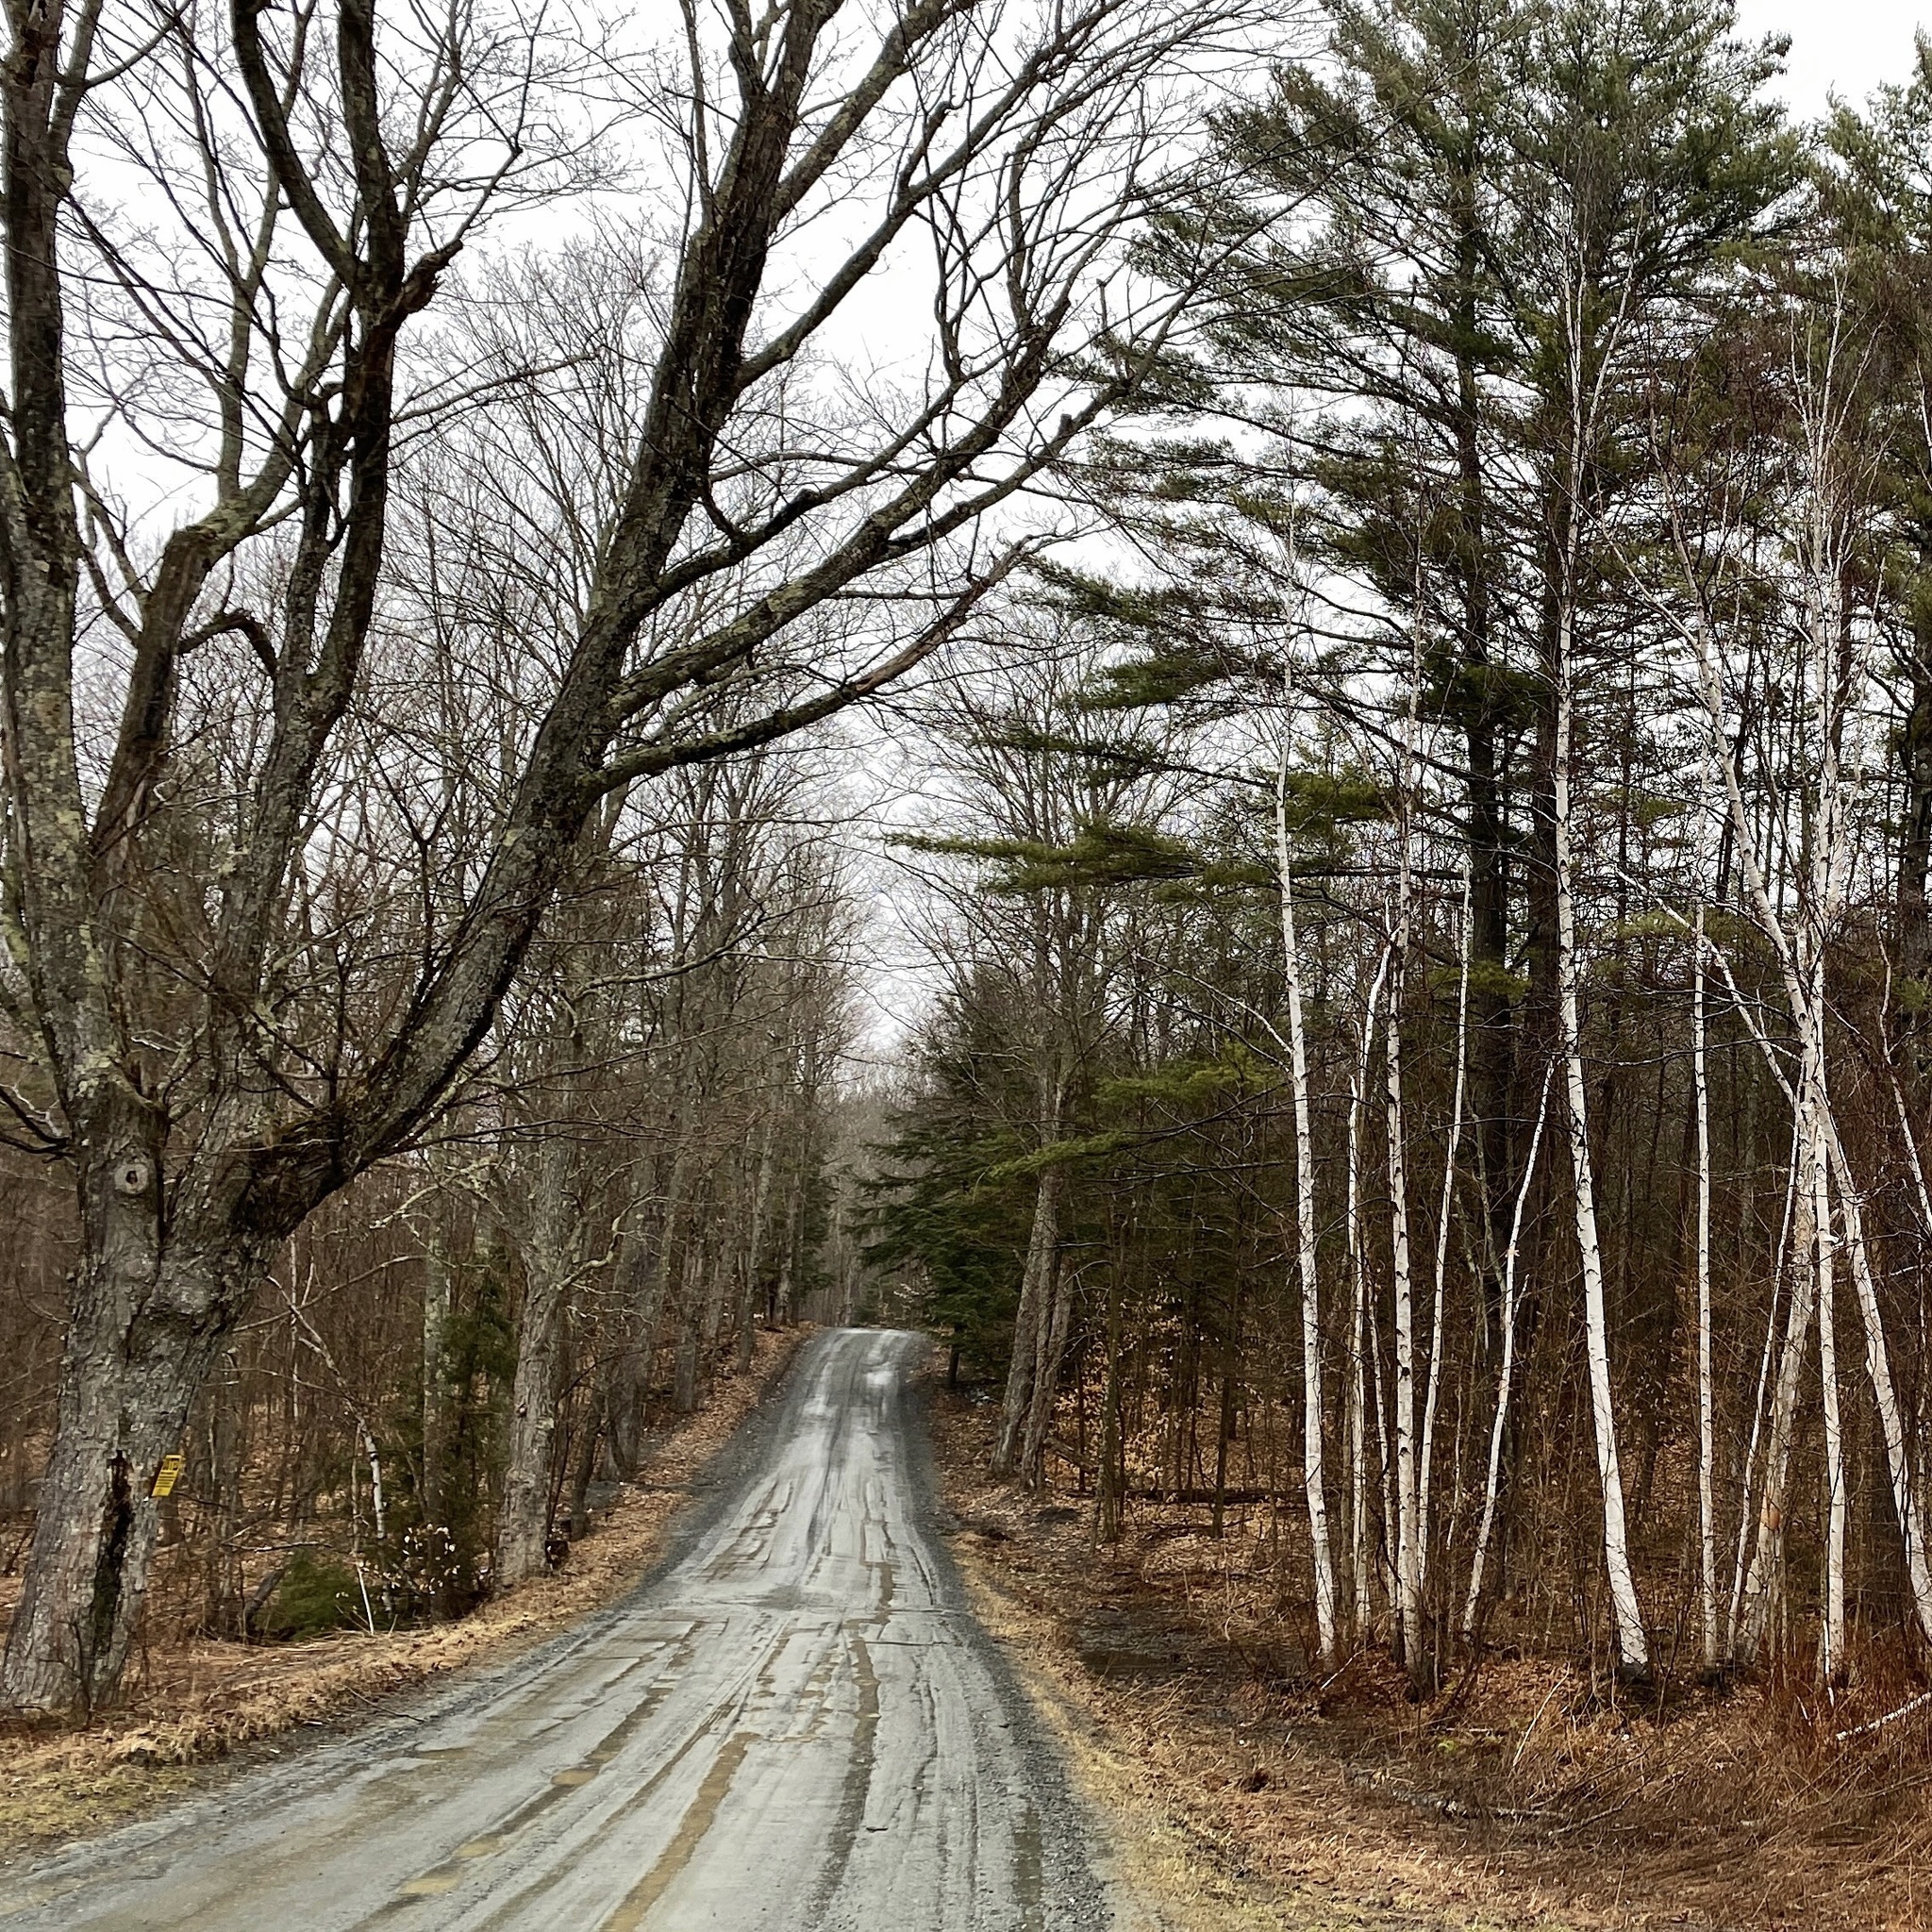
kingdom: Plantae
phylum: Tracheophyta
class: Magnoliopsida
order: Sapindales
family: Sapindaceae
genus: Acer
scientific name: Acer saccharum
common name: Sugar maple
